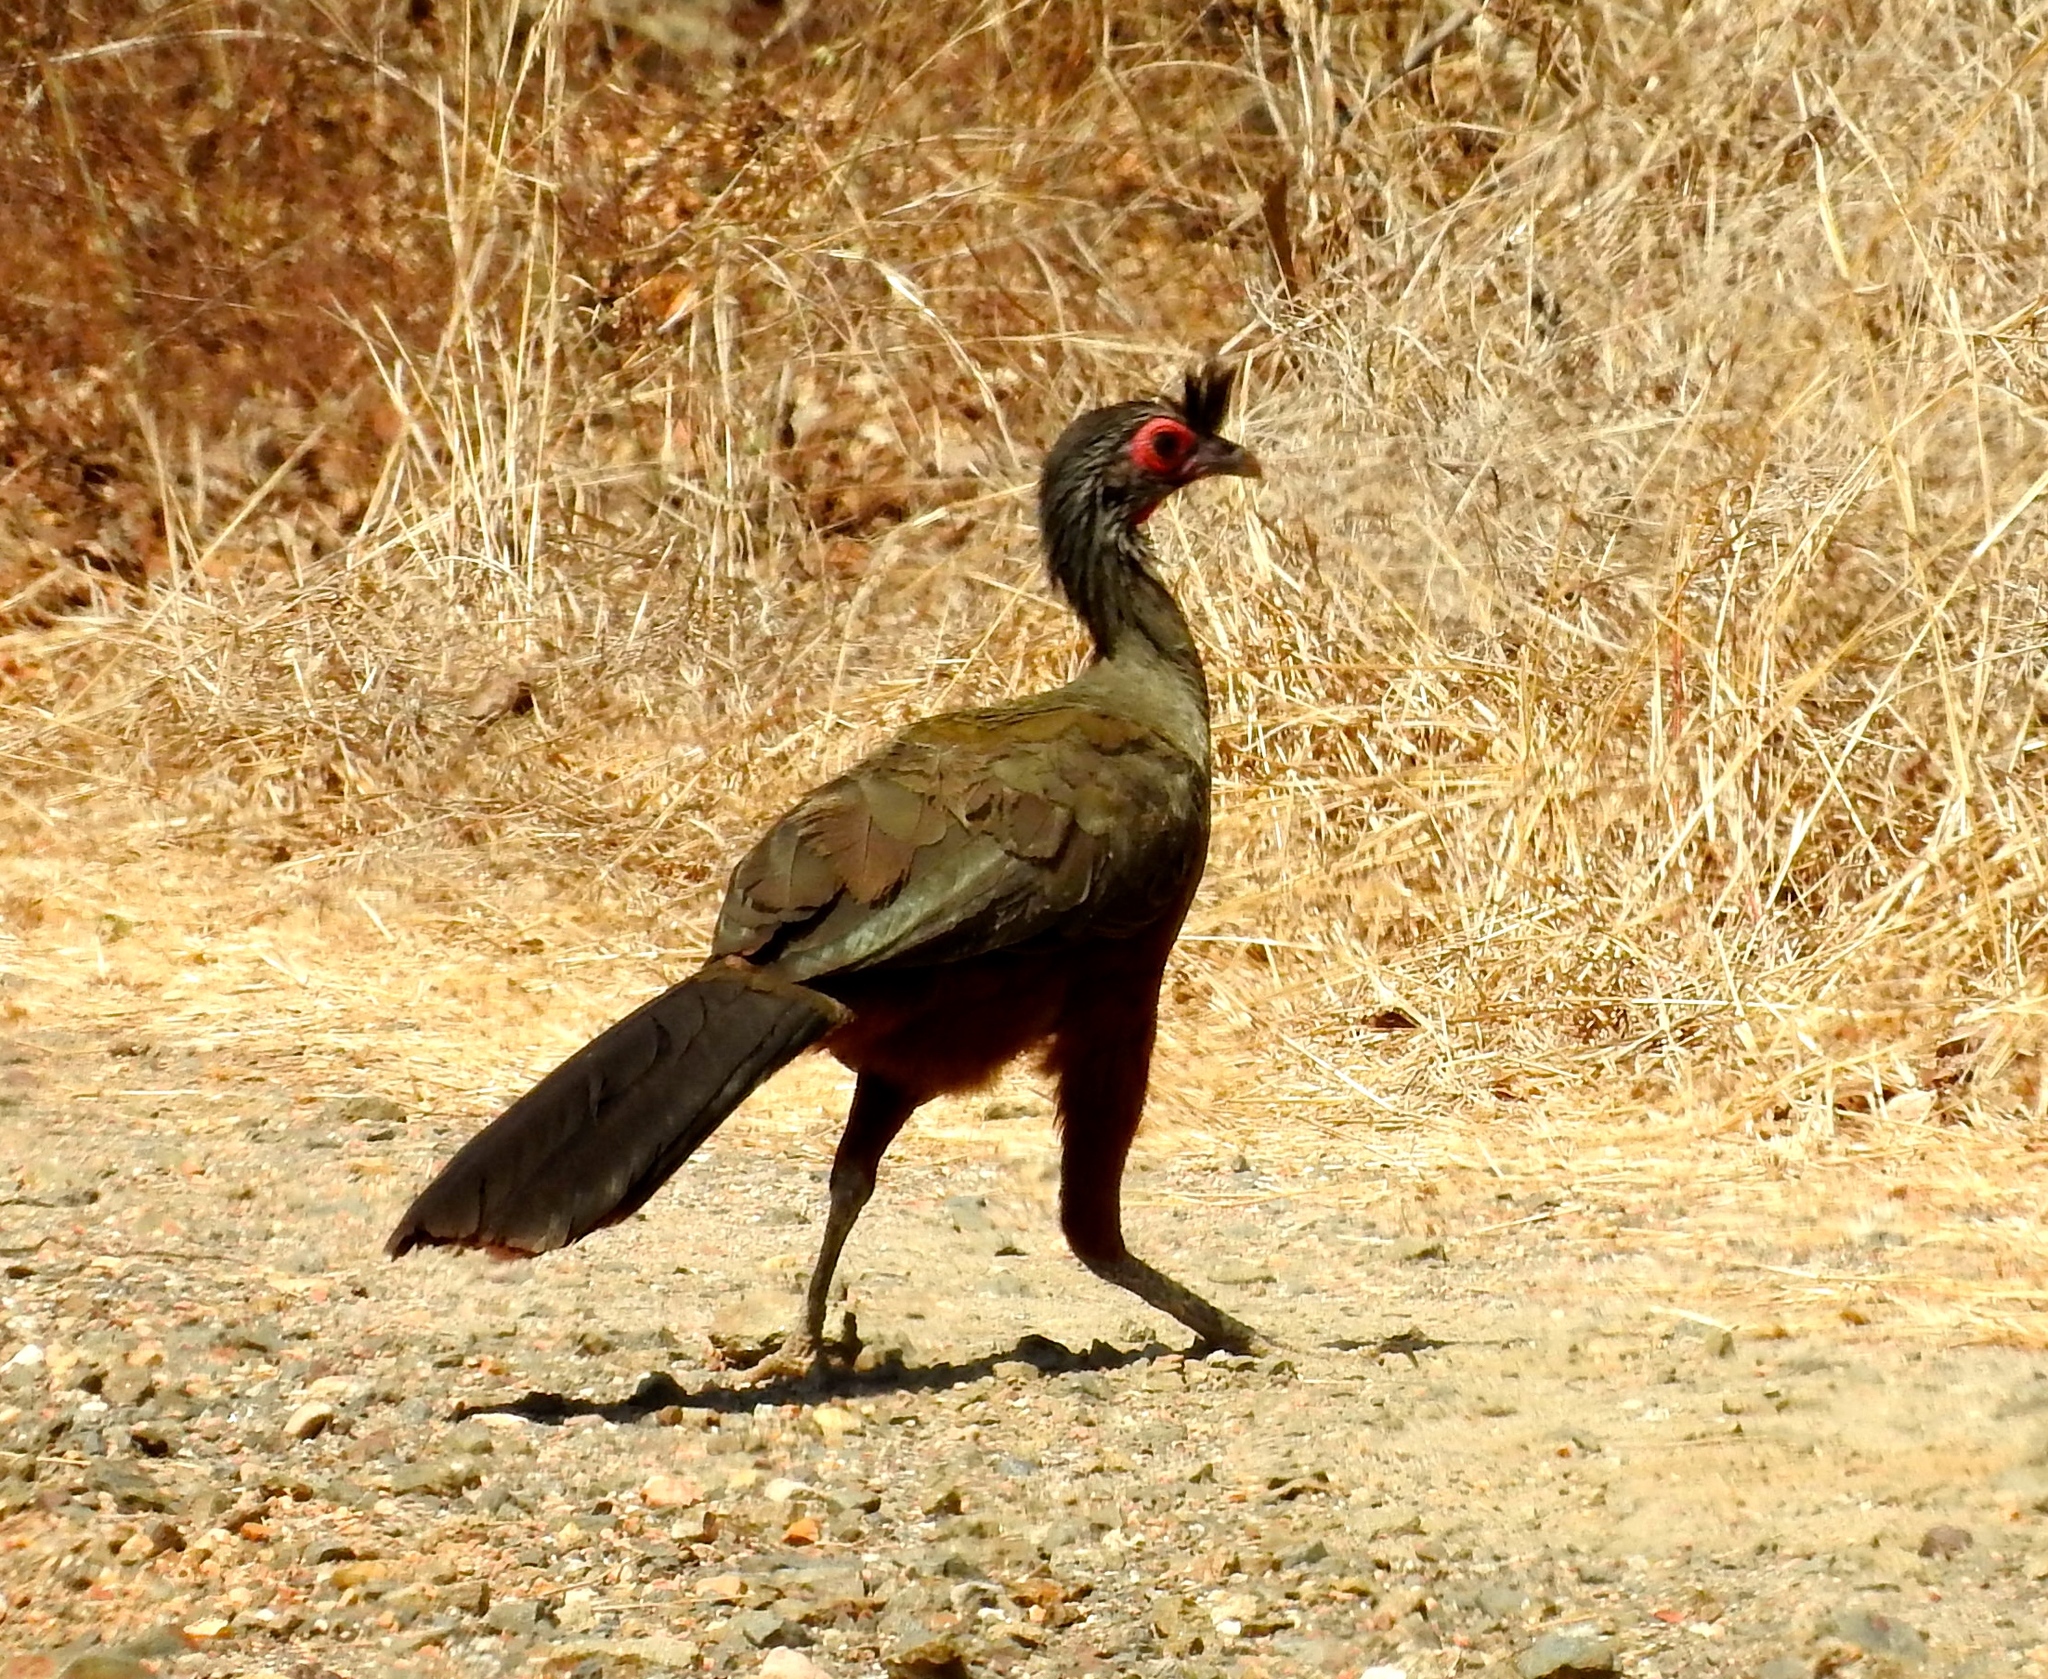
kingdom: Animalia
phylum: Chordata
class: Aves
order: Galliformes
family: Cracidae
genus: Ortalis
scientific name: Ortalis wagleri
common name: Rufous-bellied chachalaca
